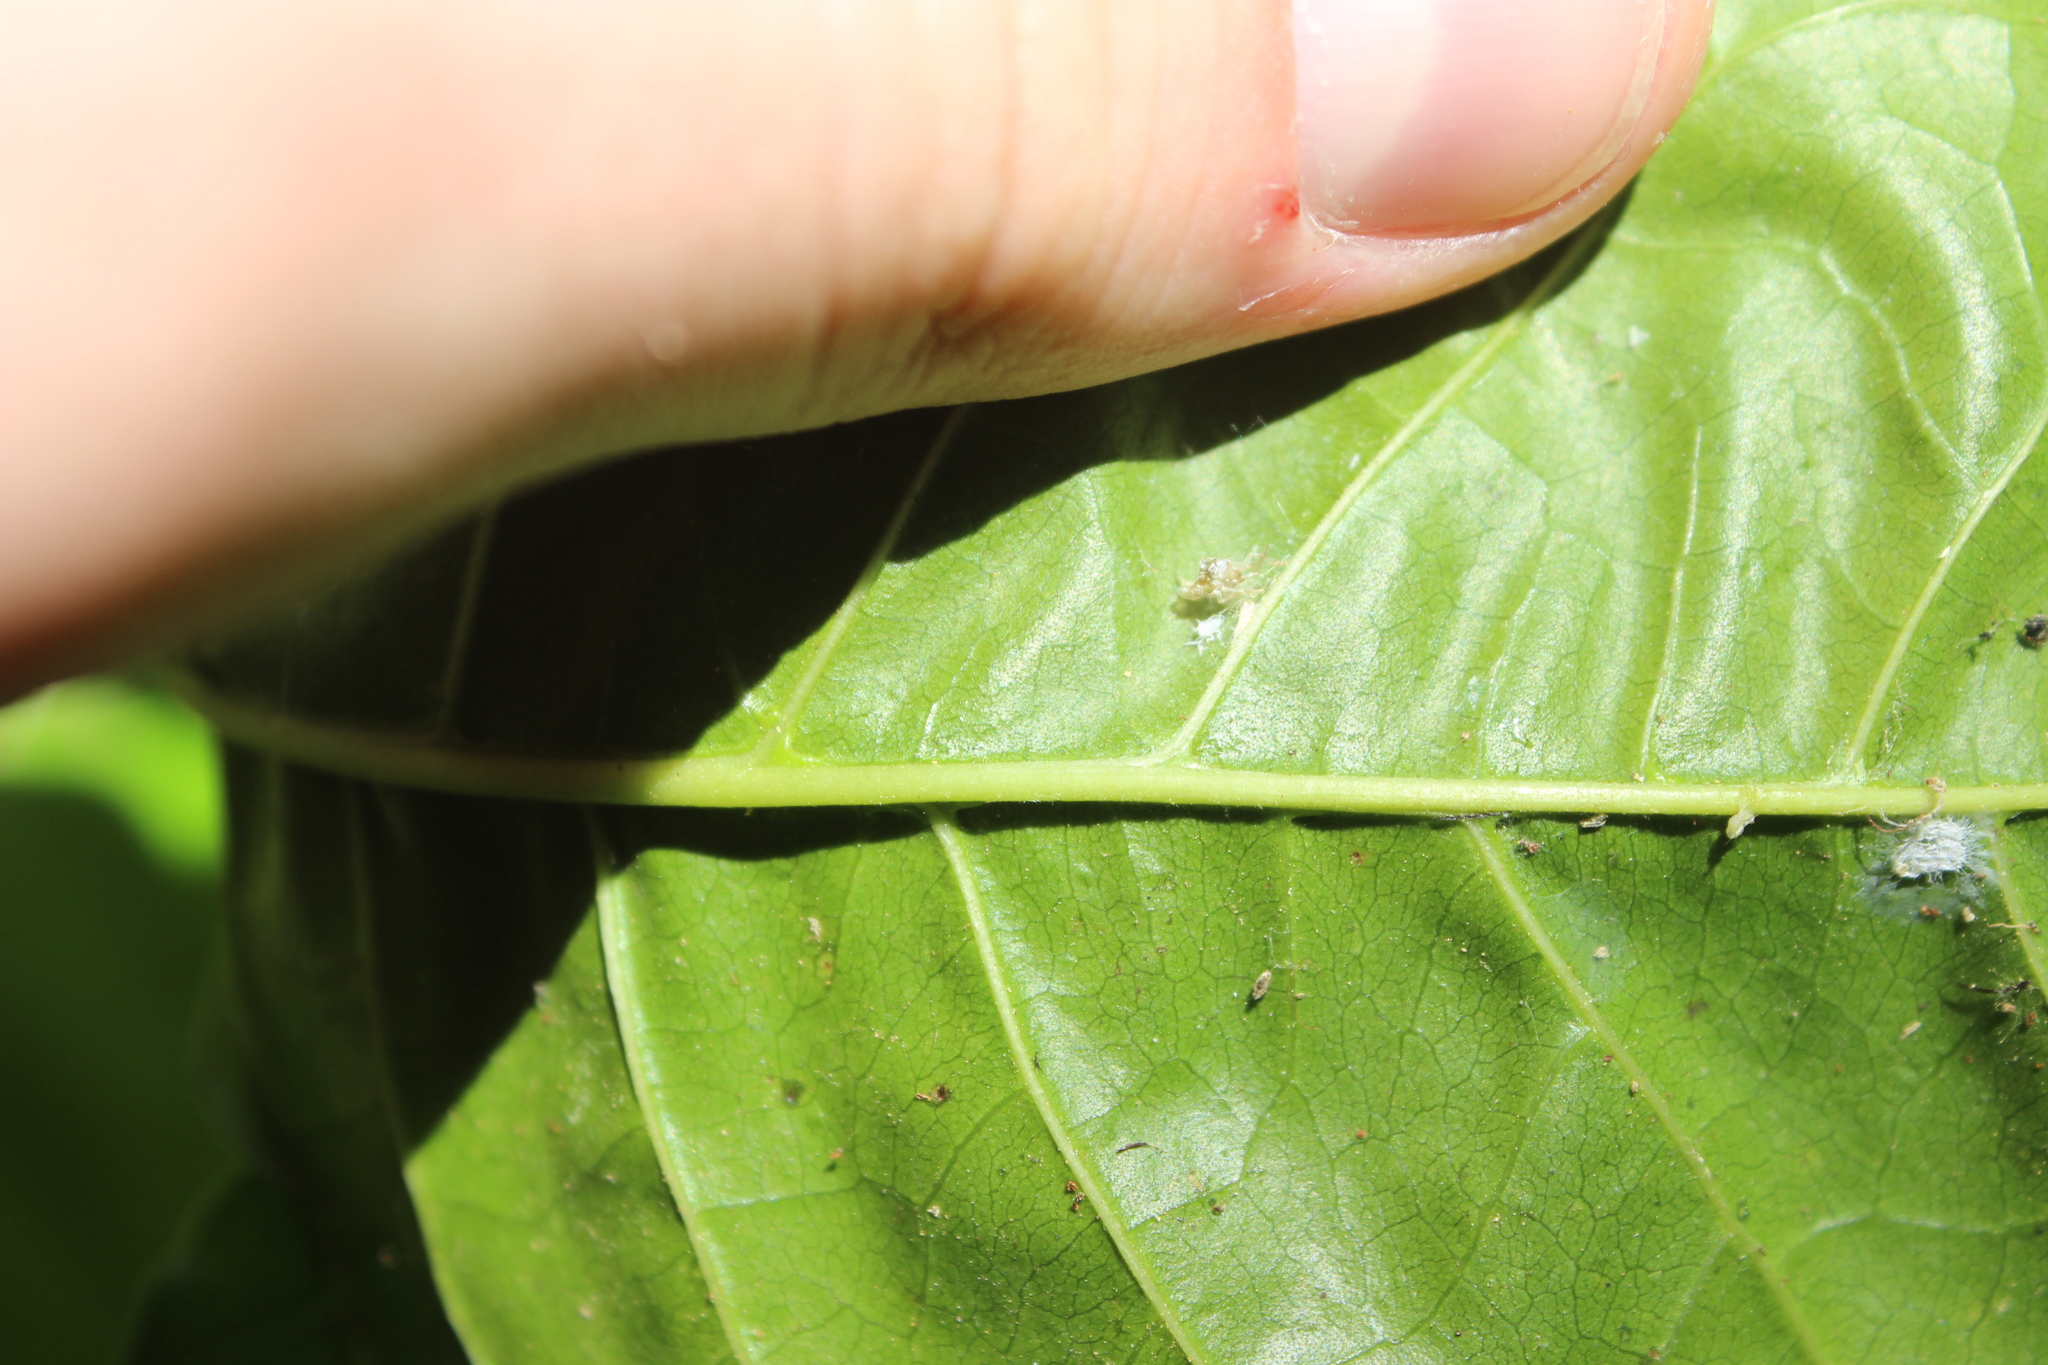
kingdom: Plantae
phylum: Tracheophyta
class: Magnoliopsida
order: Lamiales
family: Lamiaceae
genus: Vitex
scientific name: Vitex lucens
